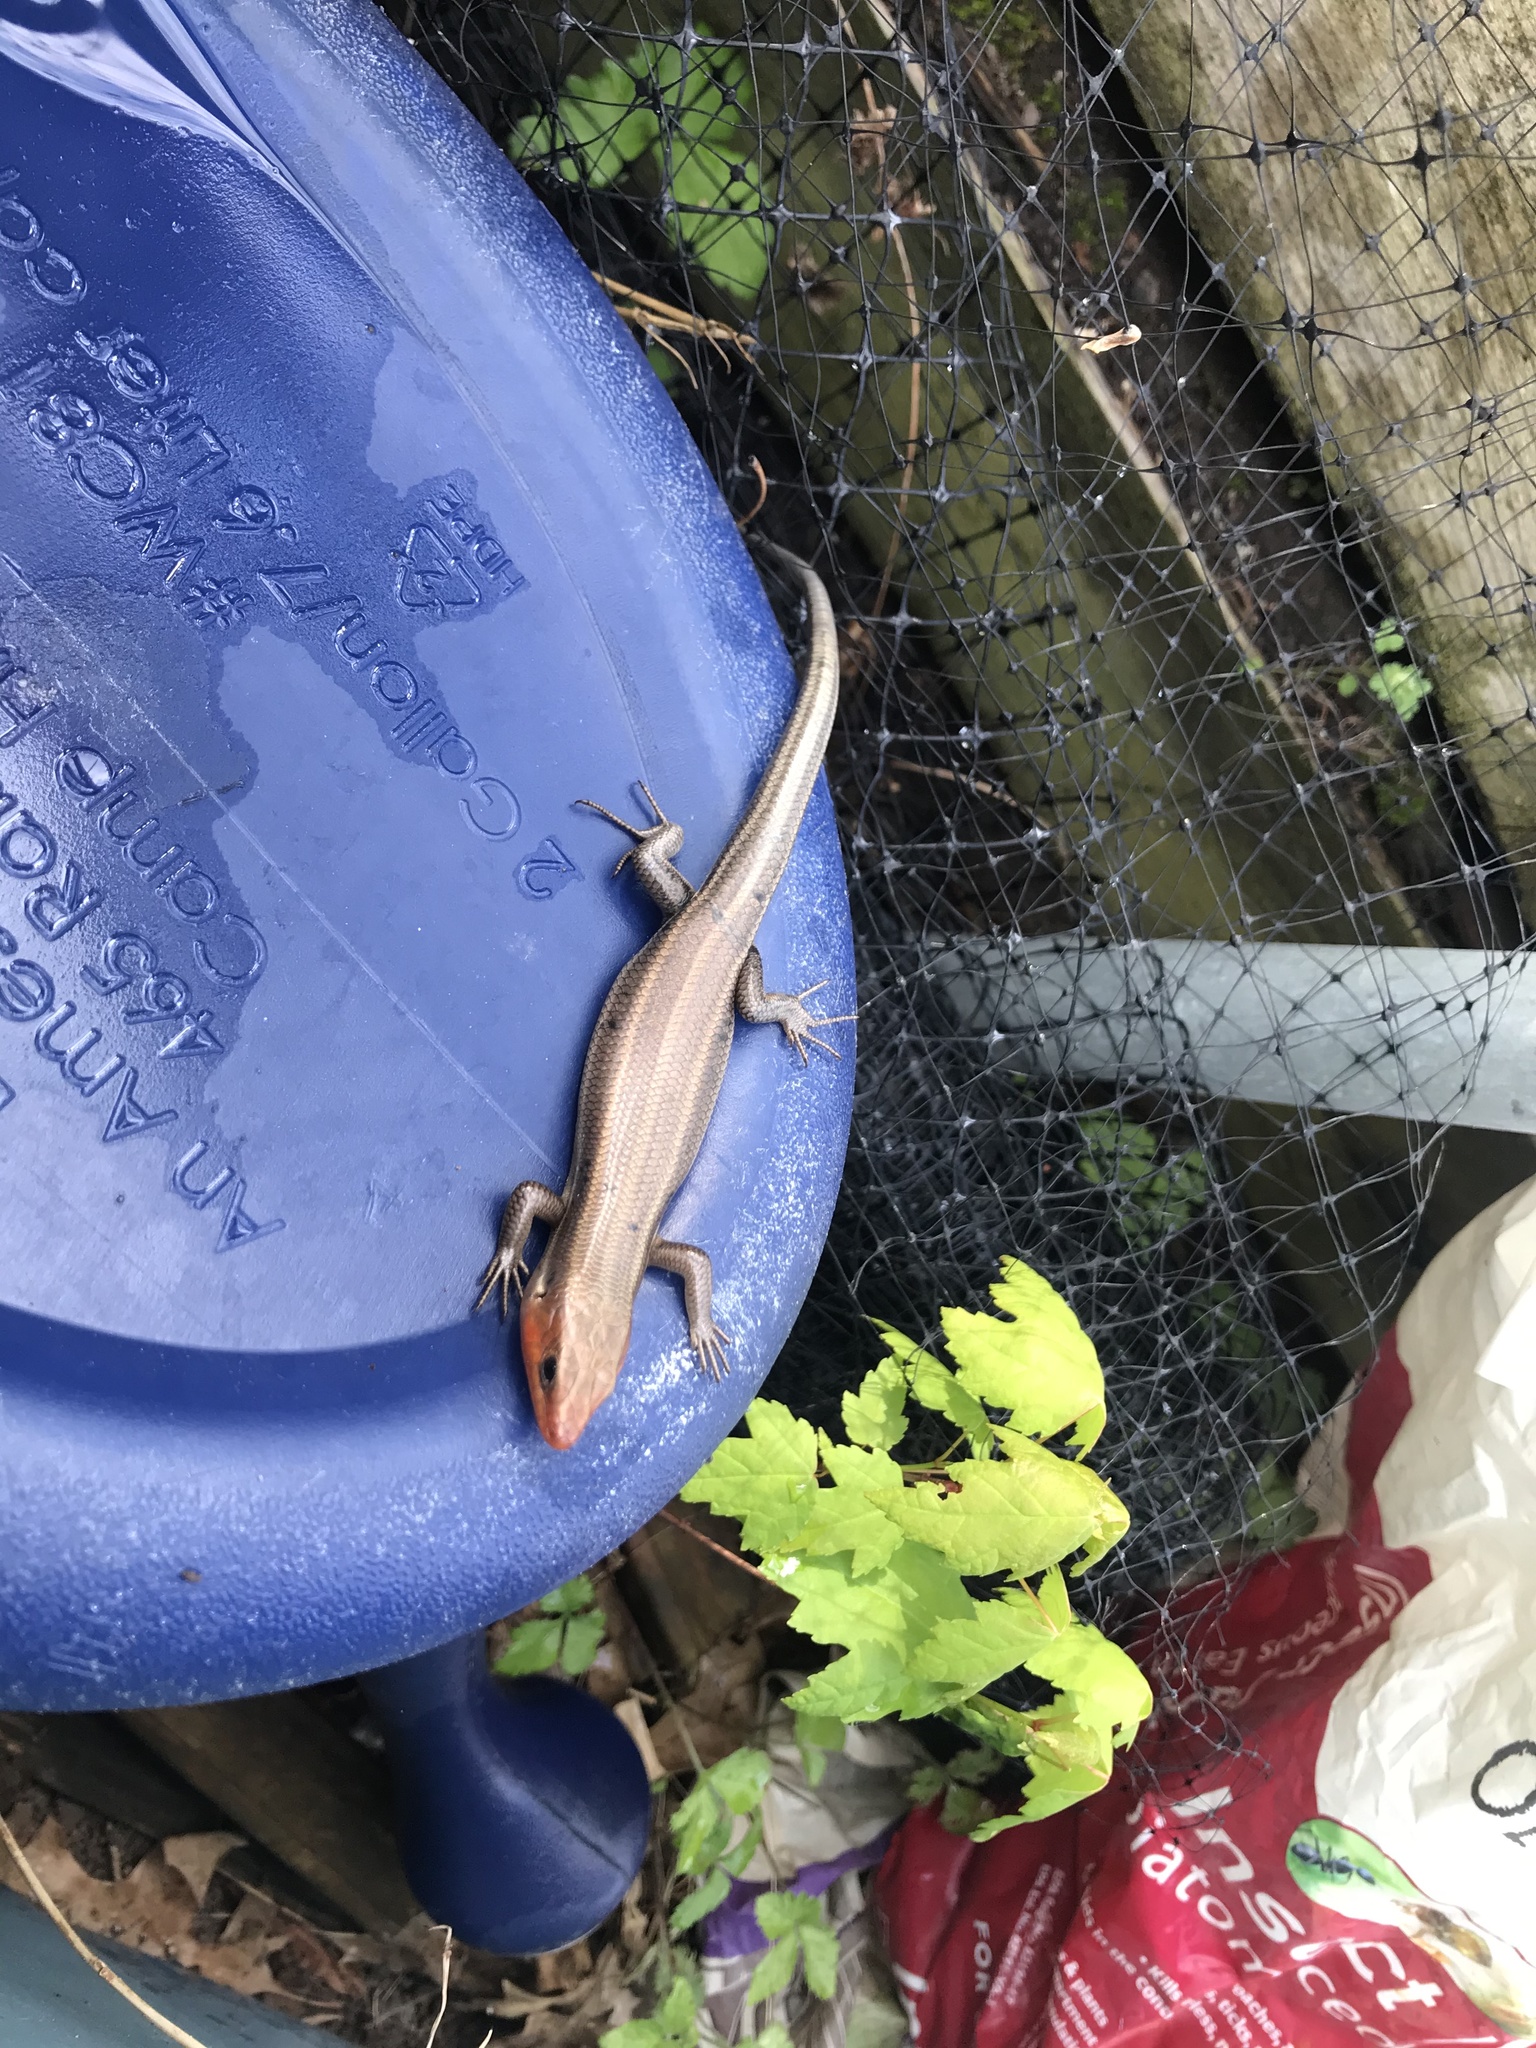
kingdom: Animalia
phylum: Chordata
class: Squamata
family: Scincidae
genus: Plestiodon
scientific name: Plestiodon fasciatus
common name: Five-lined skink
